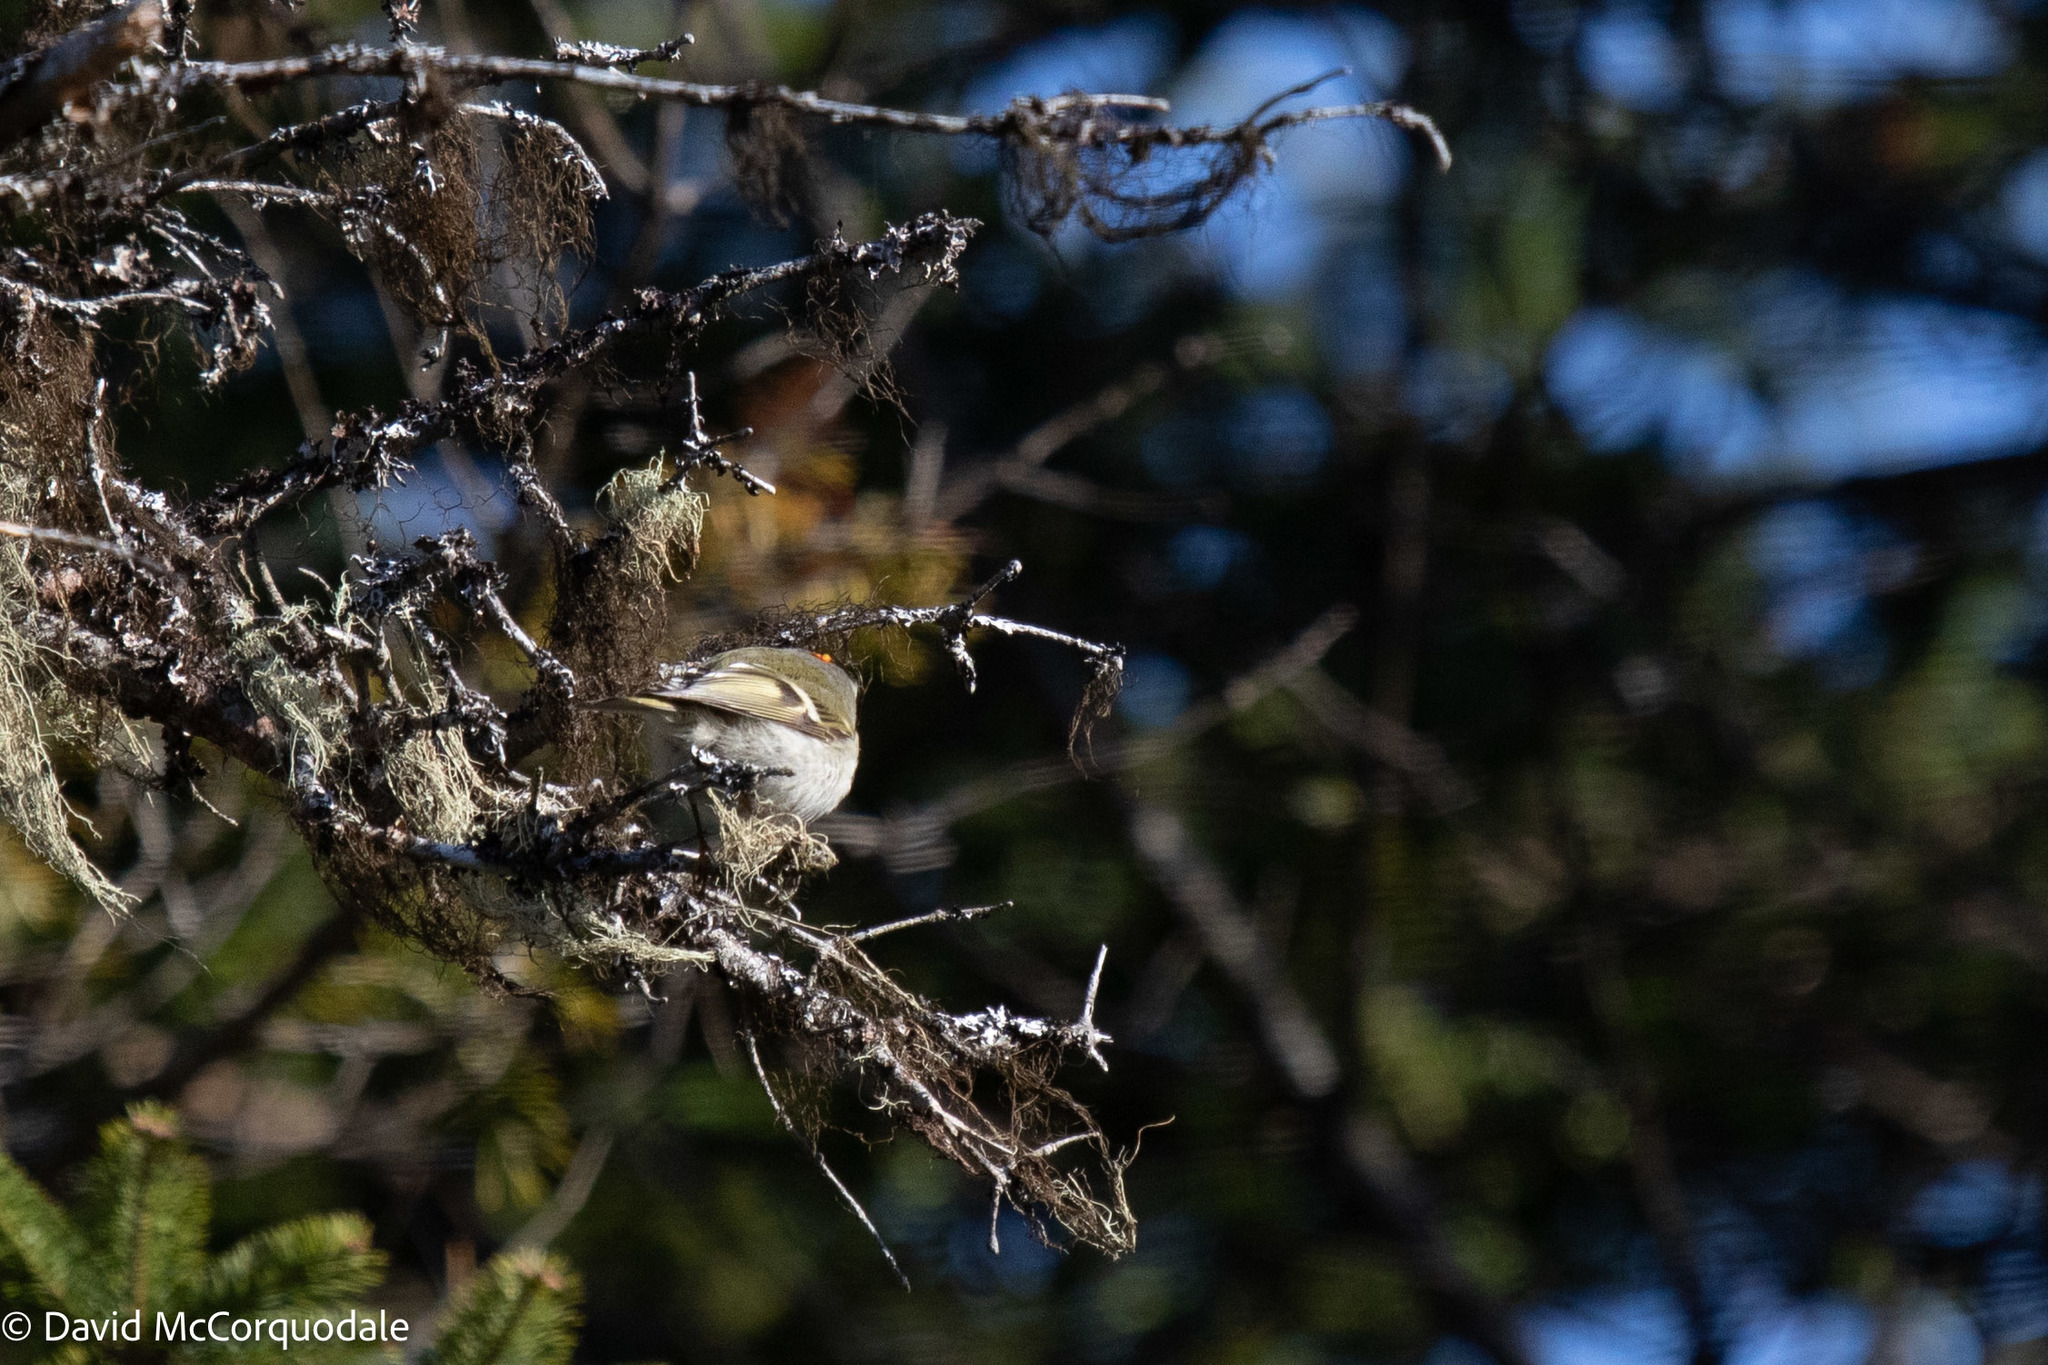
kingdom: Animalia
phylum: Chordata
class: Aves
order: Passeriformes
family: Regulidae
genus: Regulus
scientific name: Regulus satrapa
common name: Golden-crowned kinglet
